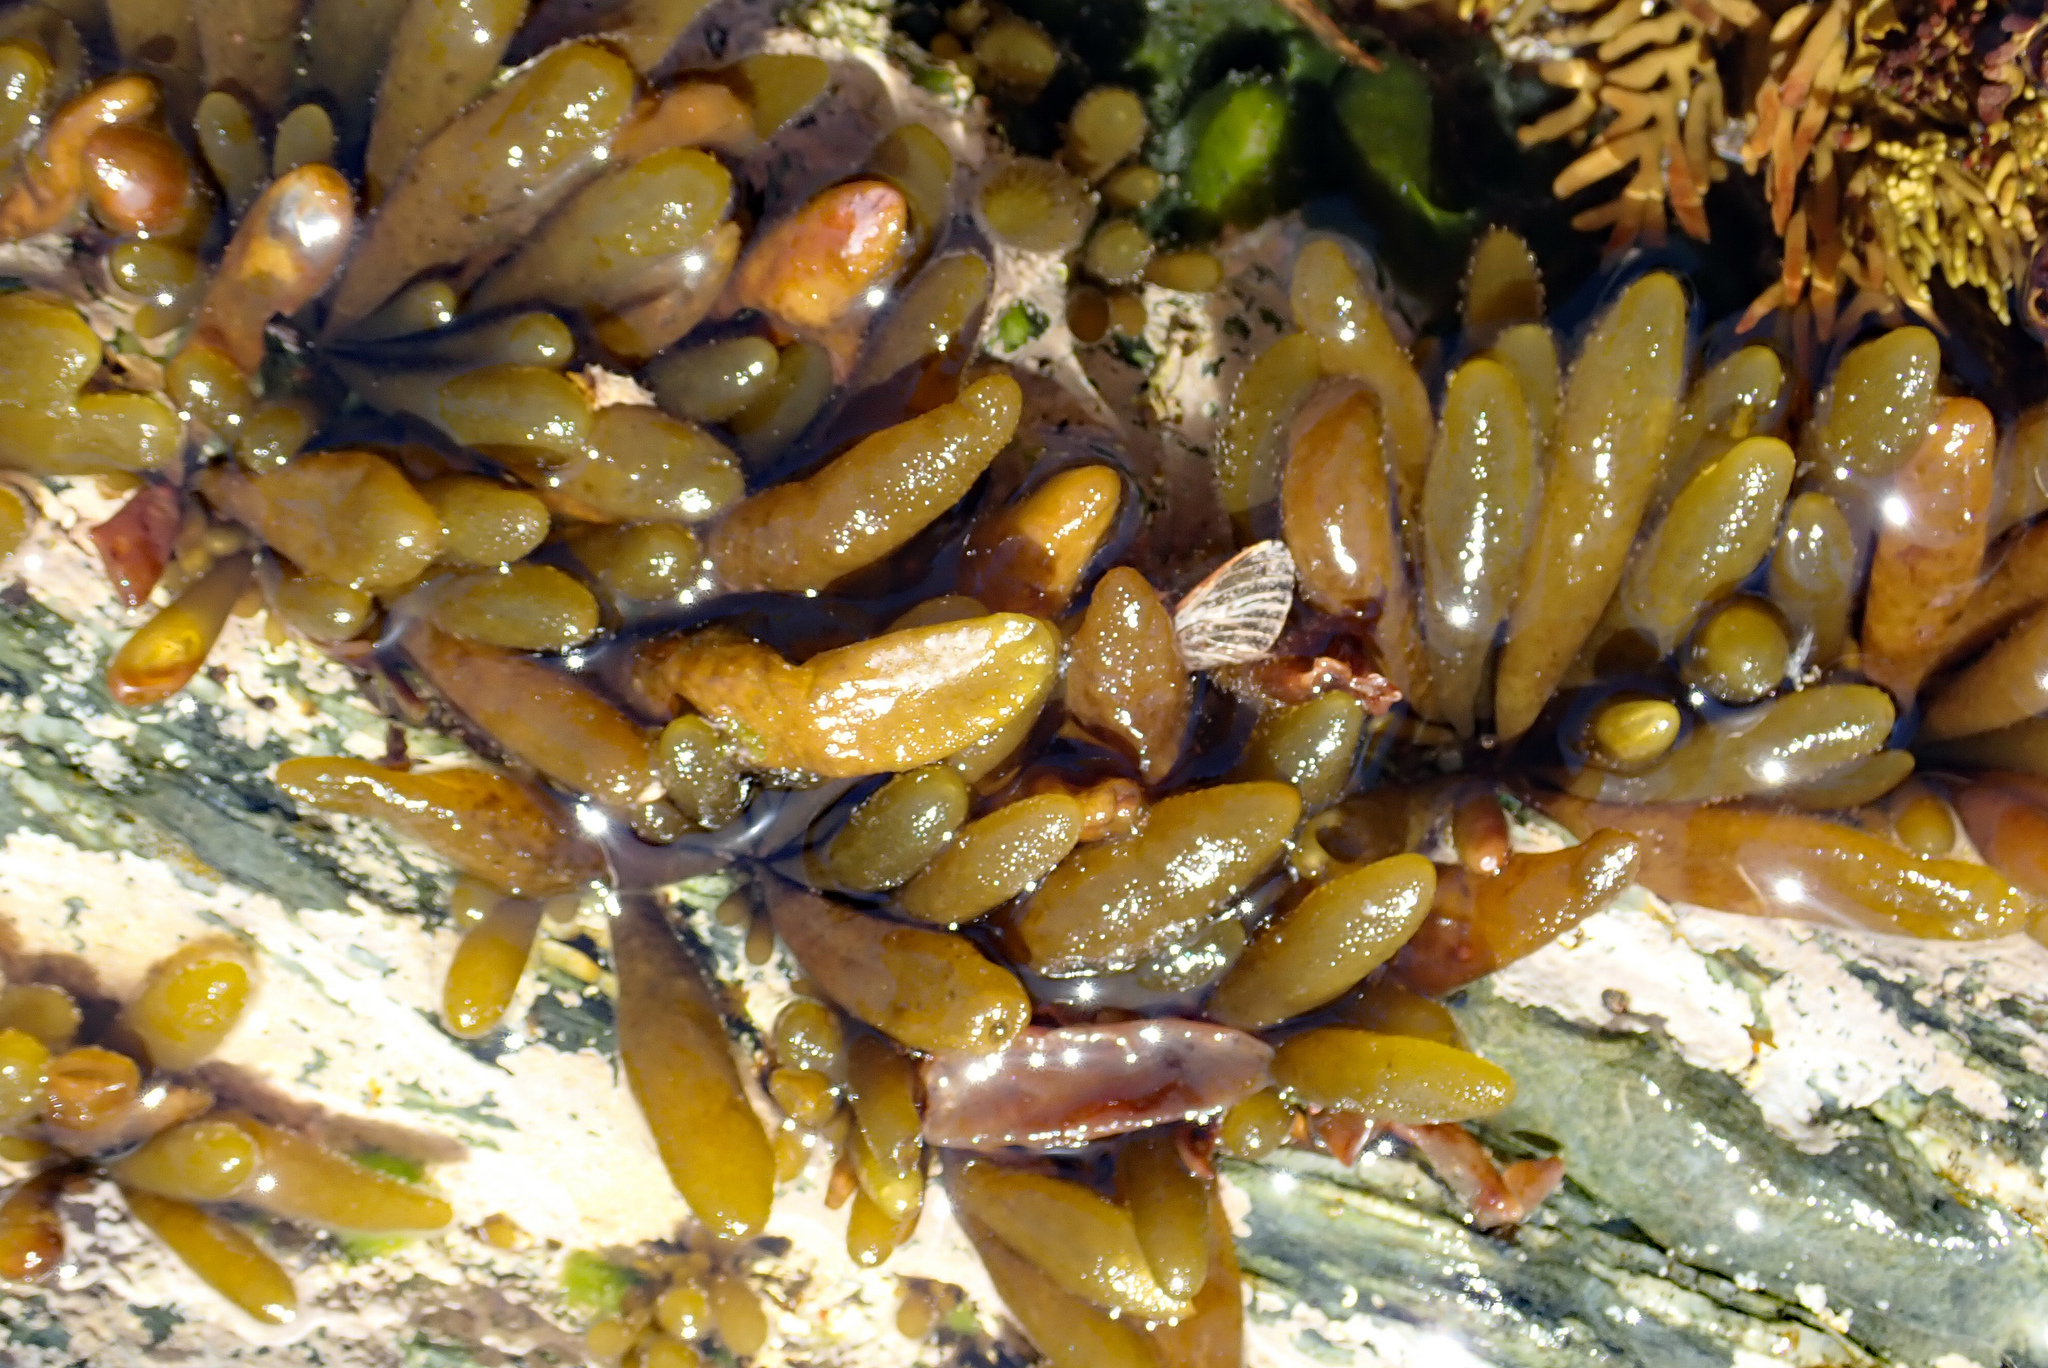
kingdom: Chromista
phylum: Ochrophyta
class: Phaeophyceae
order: Ectocarpales
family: Adenocystaceae
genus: Adenocystis
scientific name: Adenocystis utricularis
